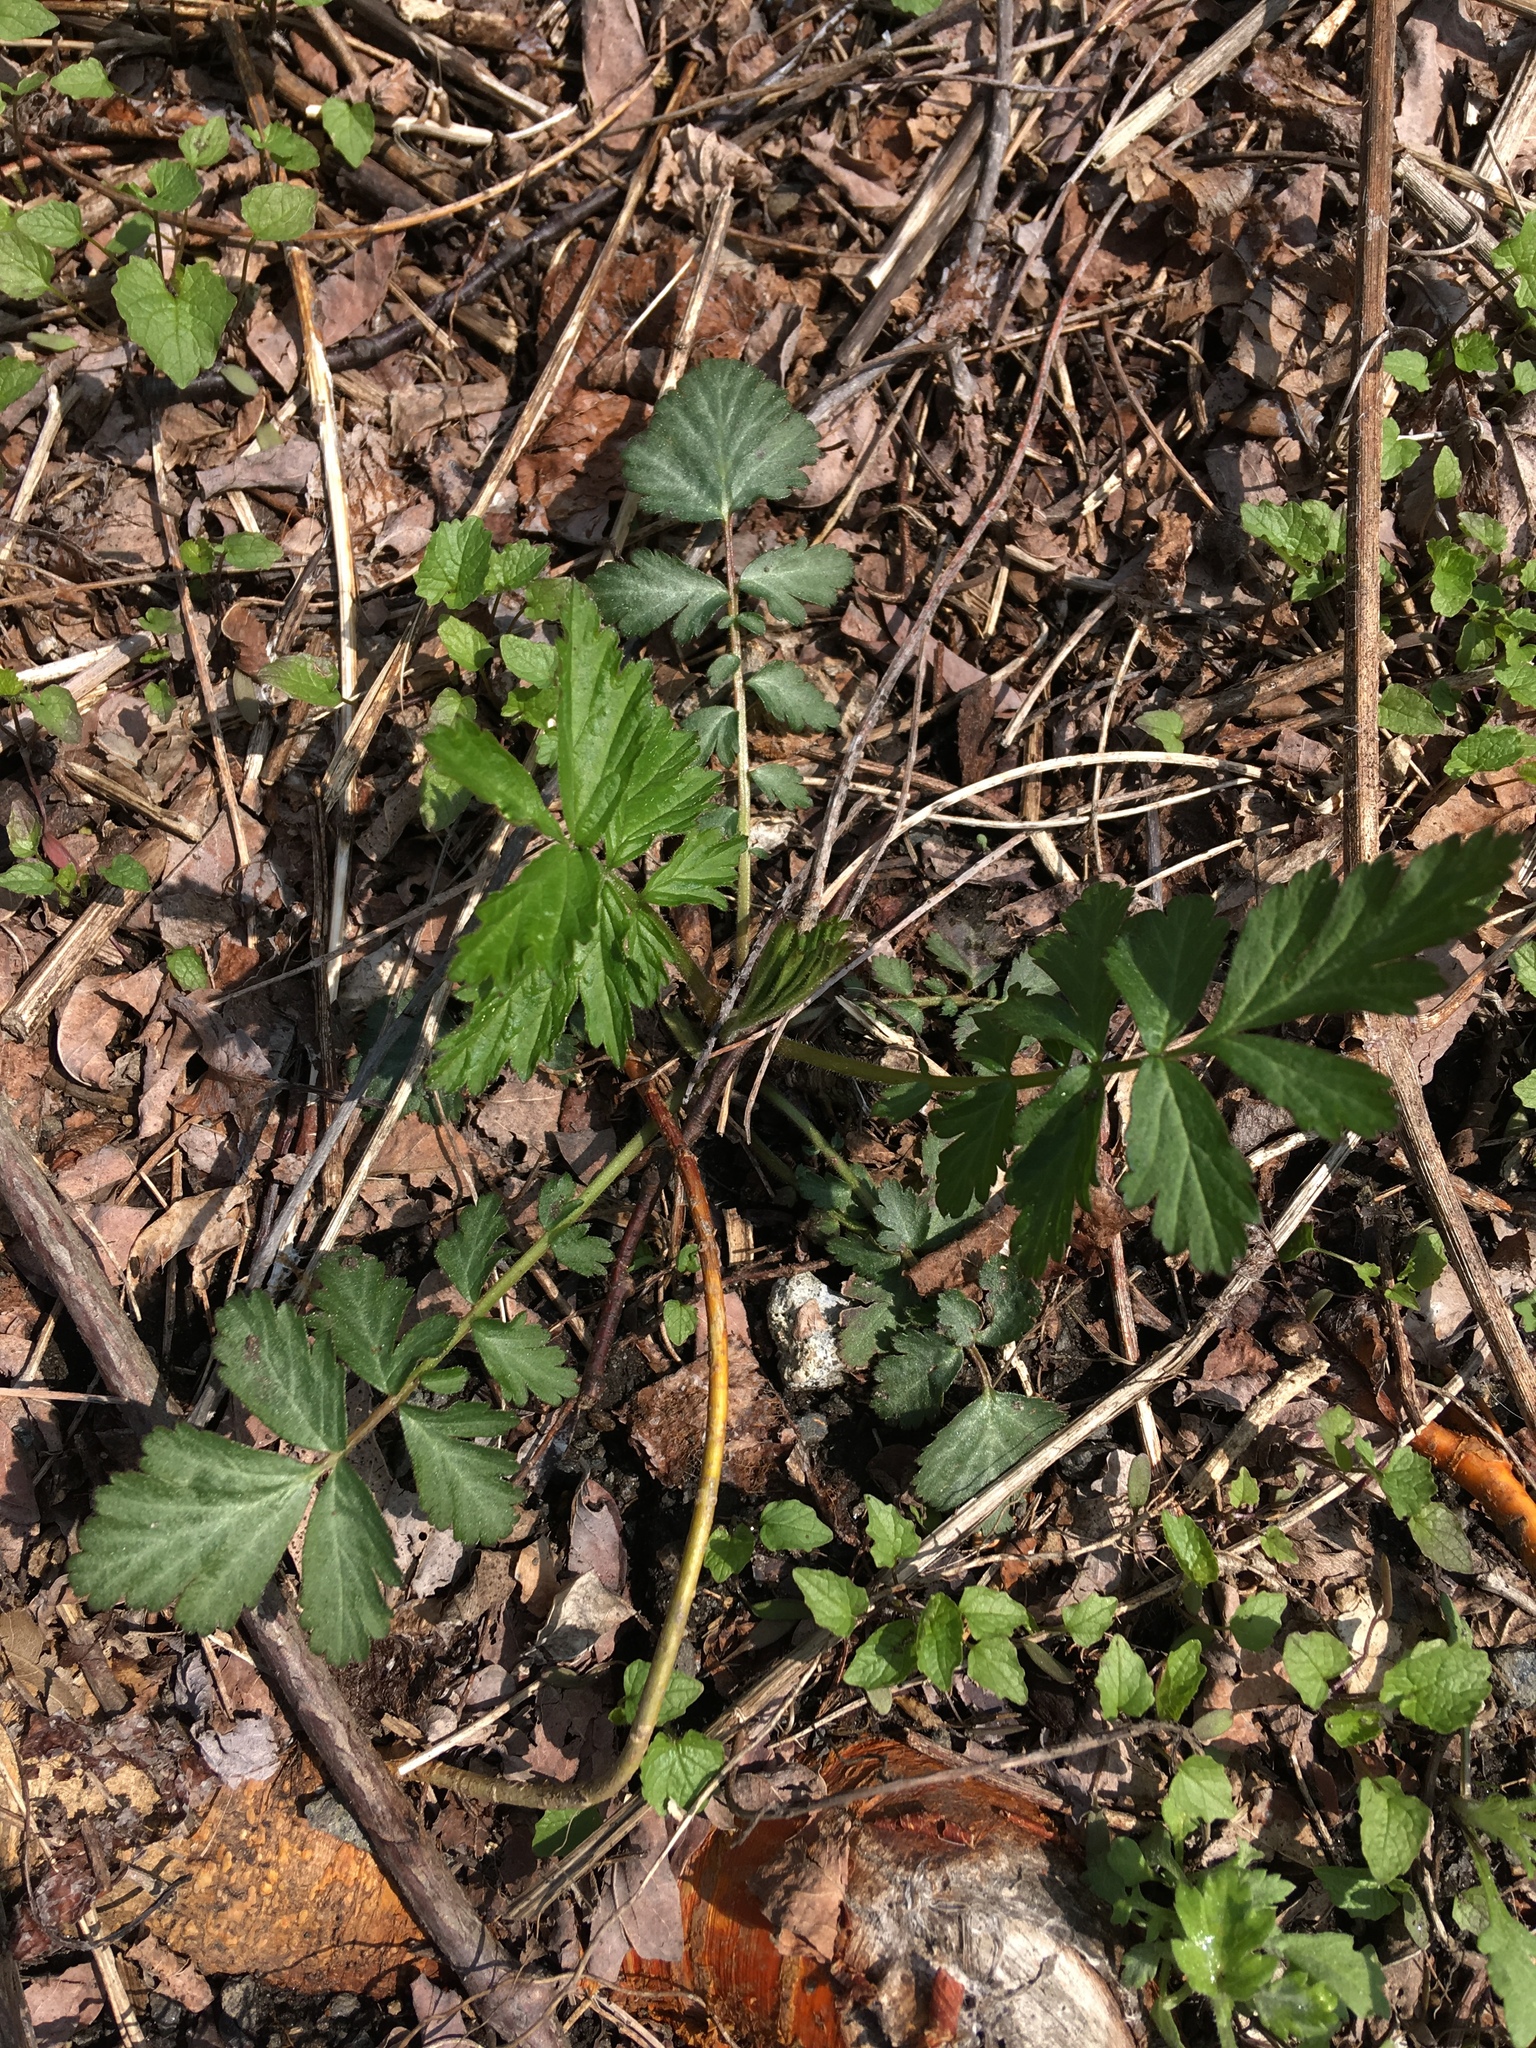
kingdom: Plantae
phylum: Tracheophyta
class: Magnoliopsida
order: Rosales
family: Rosaceae
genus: Geum
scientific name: Geum canadense
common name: White avens
